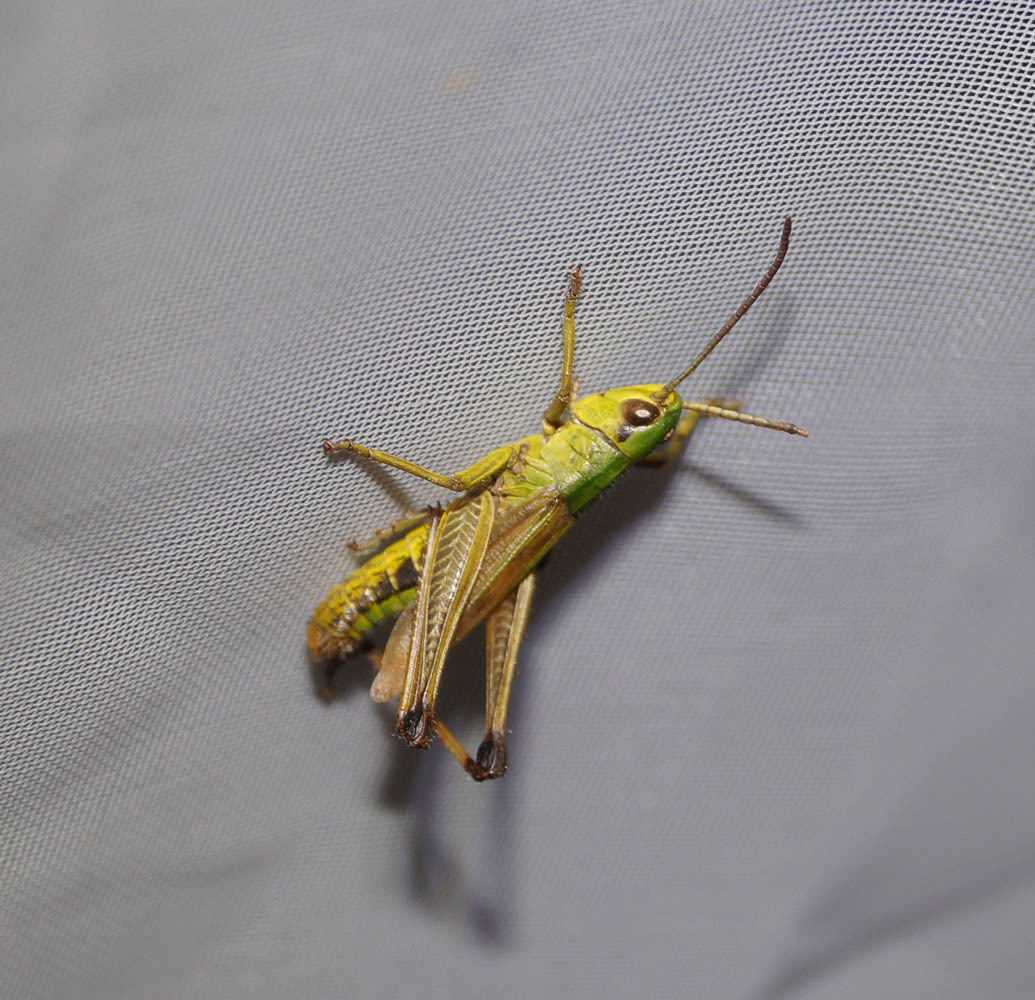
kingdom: Animalia
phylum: Arthropoda
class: Insecta
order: Orthoptera
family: Acrididae
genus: Pseudochorthippus
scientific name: Pseudochorthippus parallelus
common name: Meadow grasshopper
